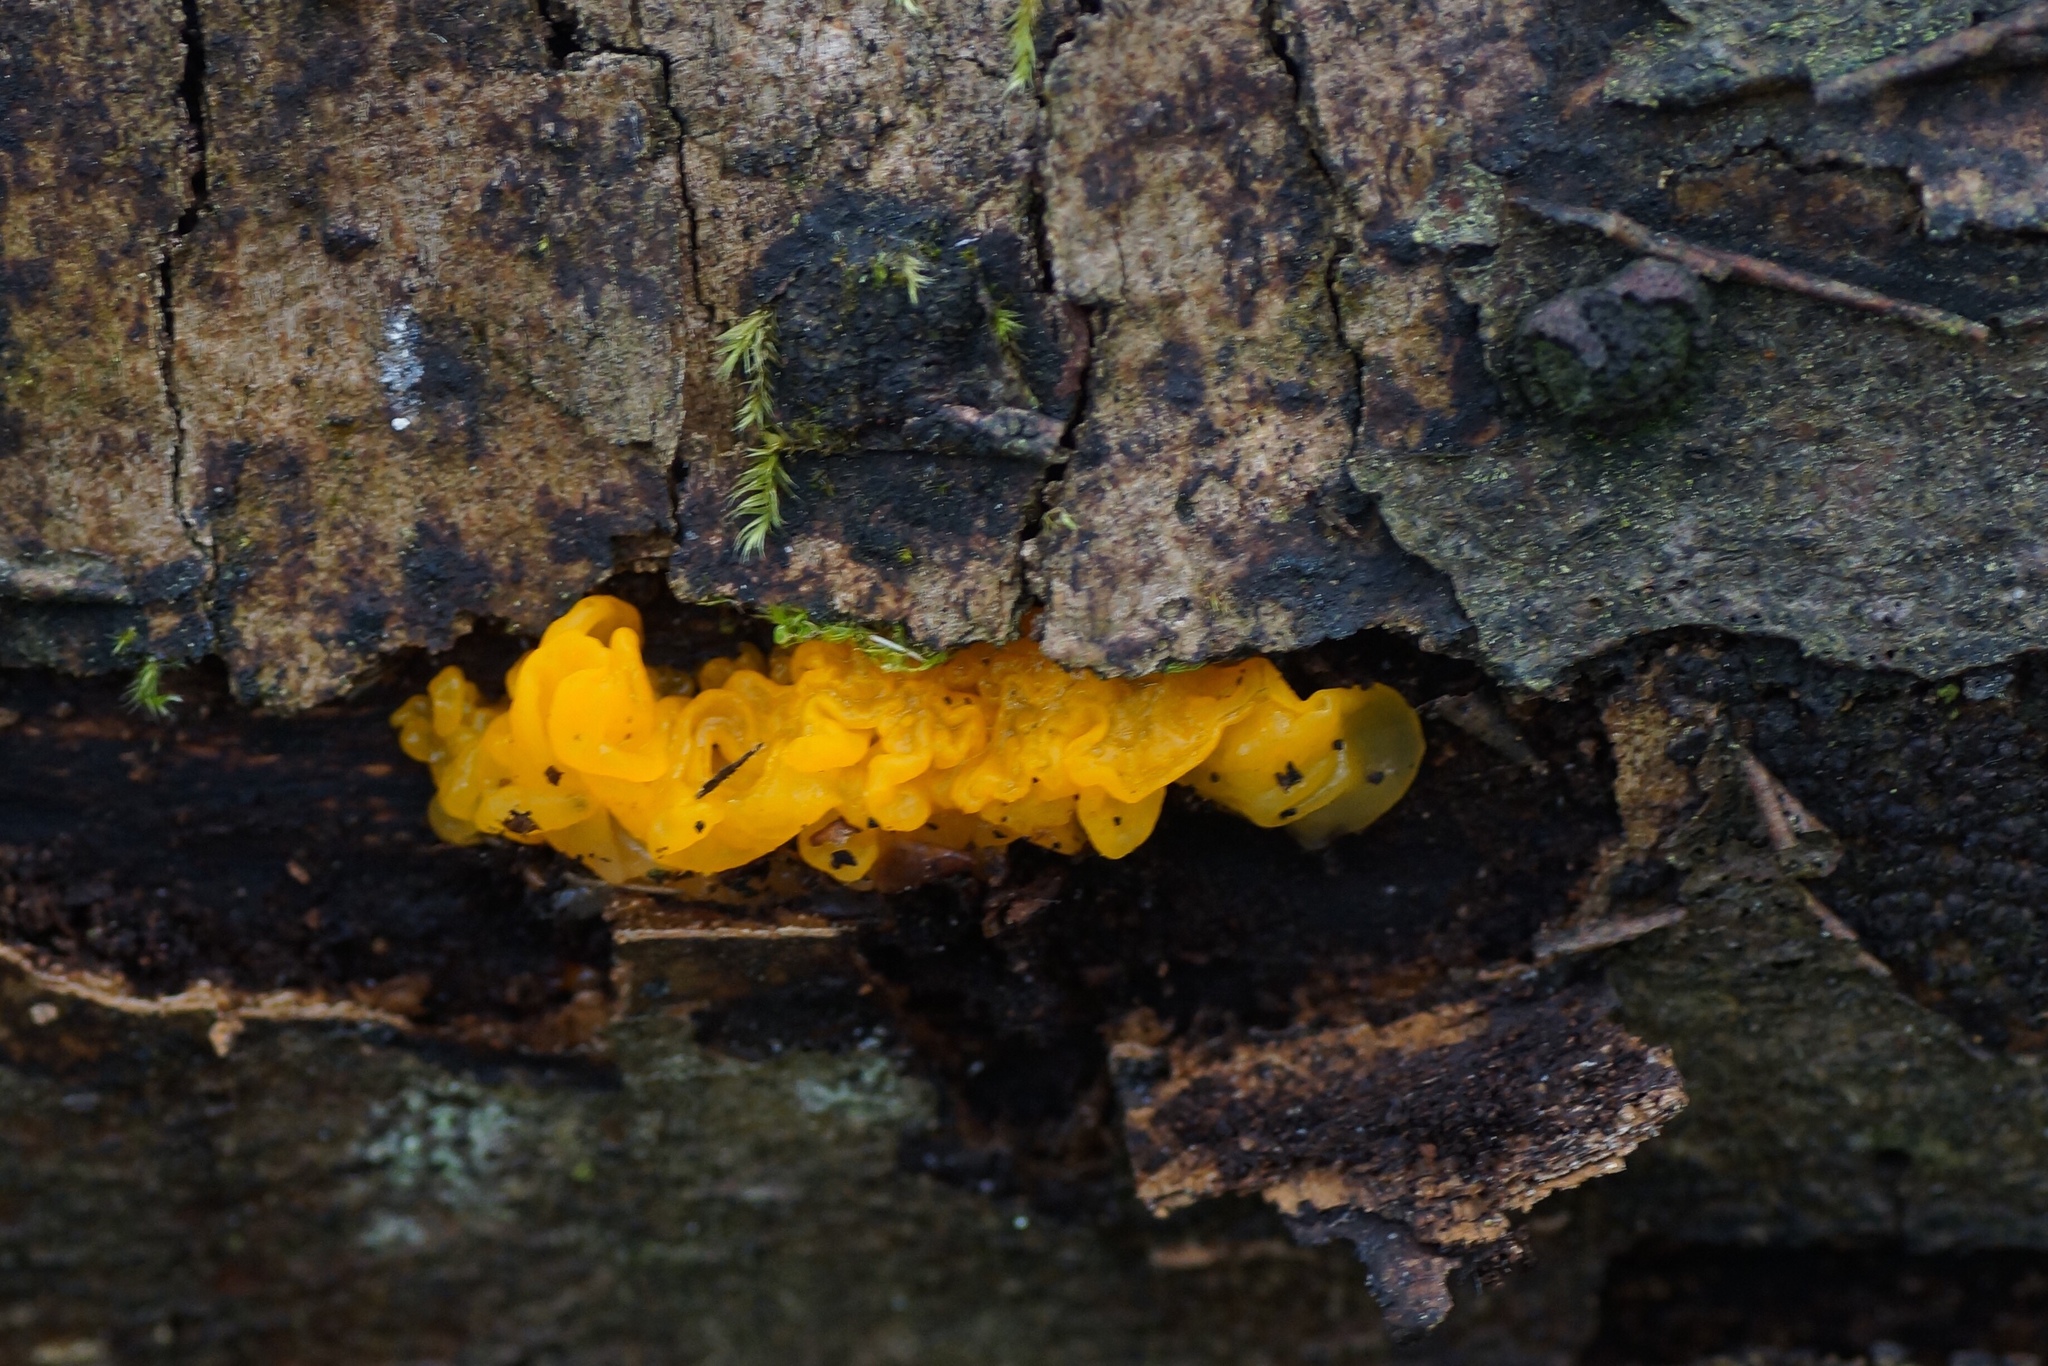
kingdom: Fungi
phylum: Basidiomycota
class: Tremellomycetes
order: Tremellales
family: Tremellaceae
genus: Tremella
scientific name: Tremella mesenterica
